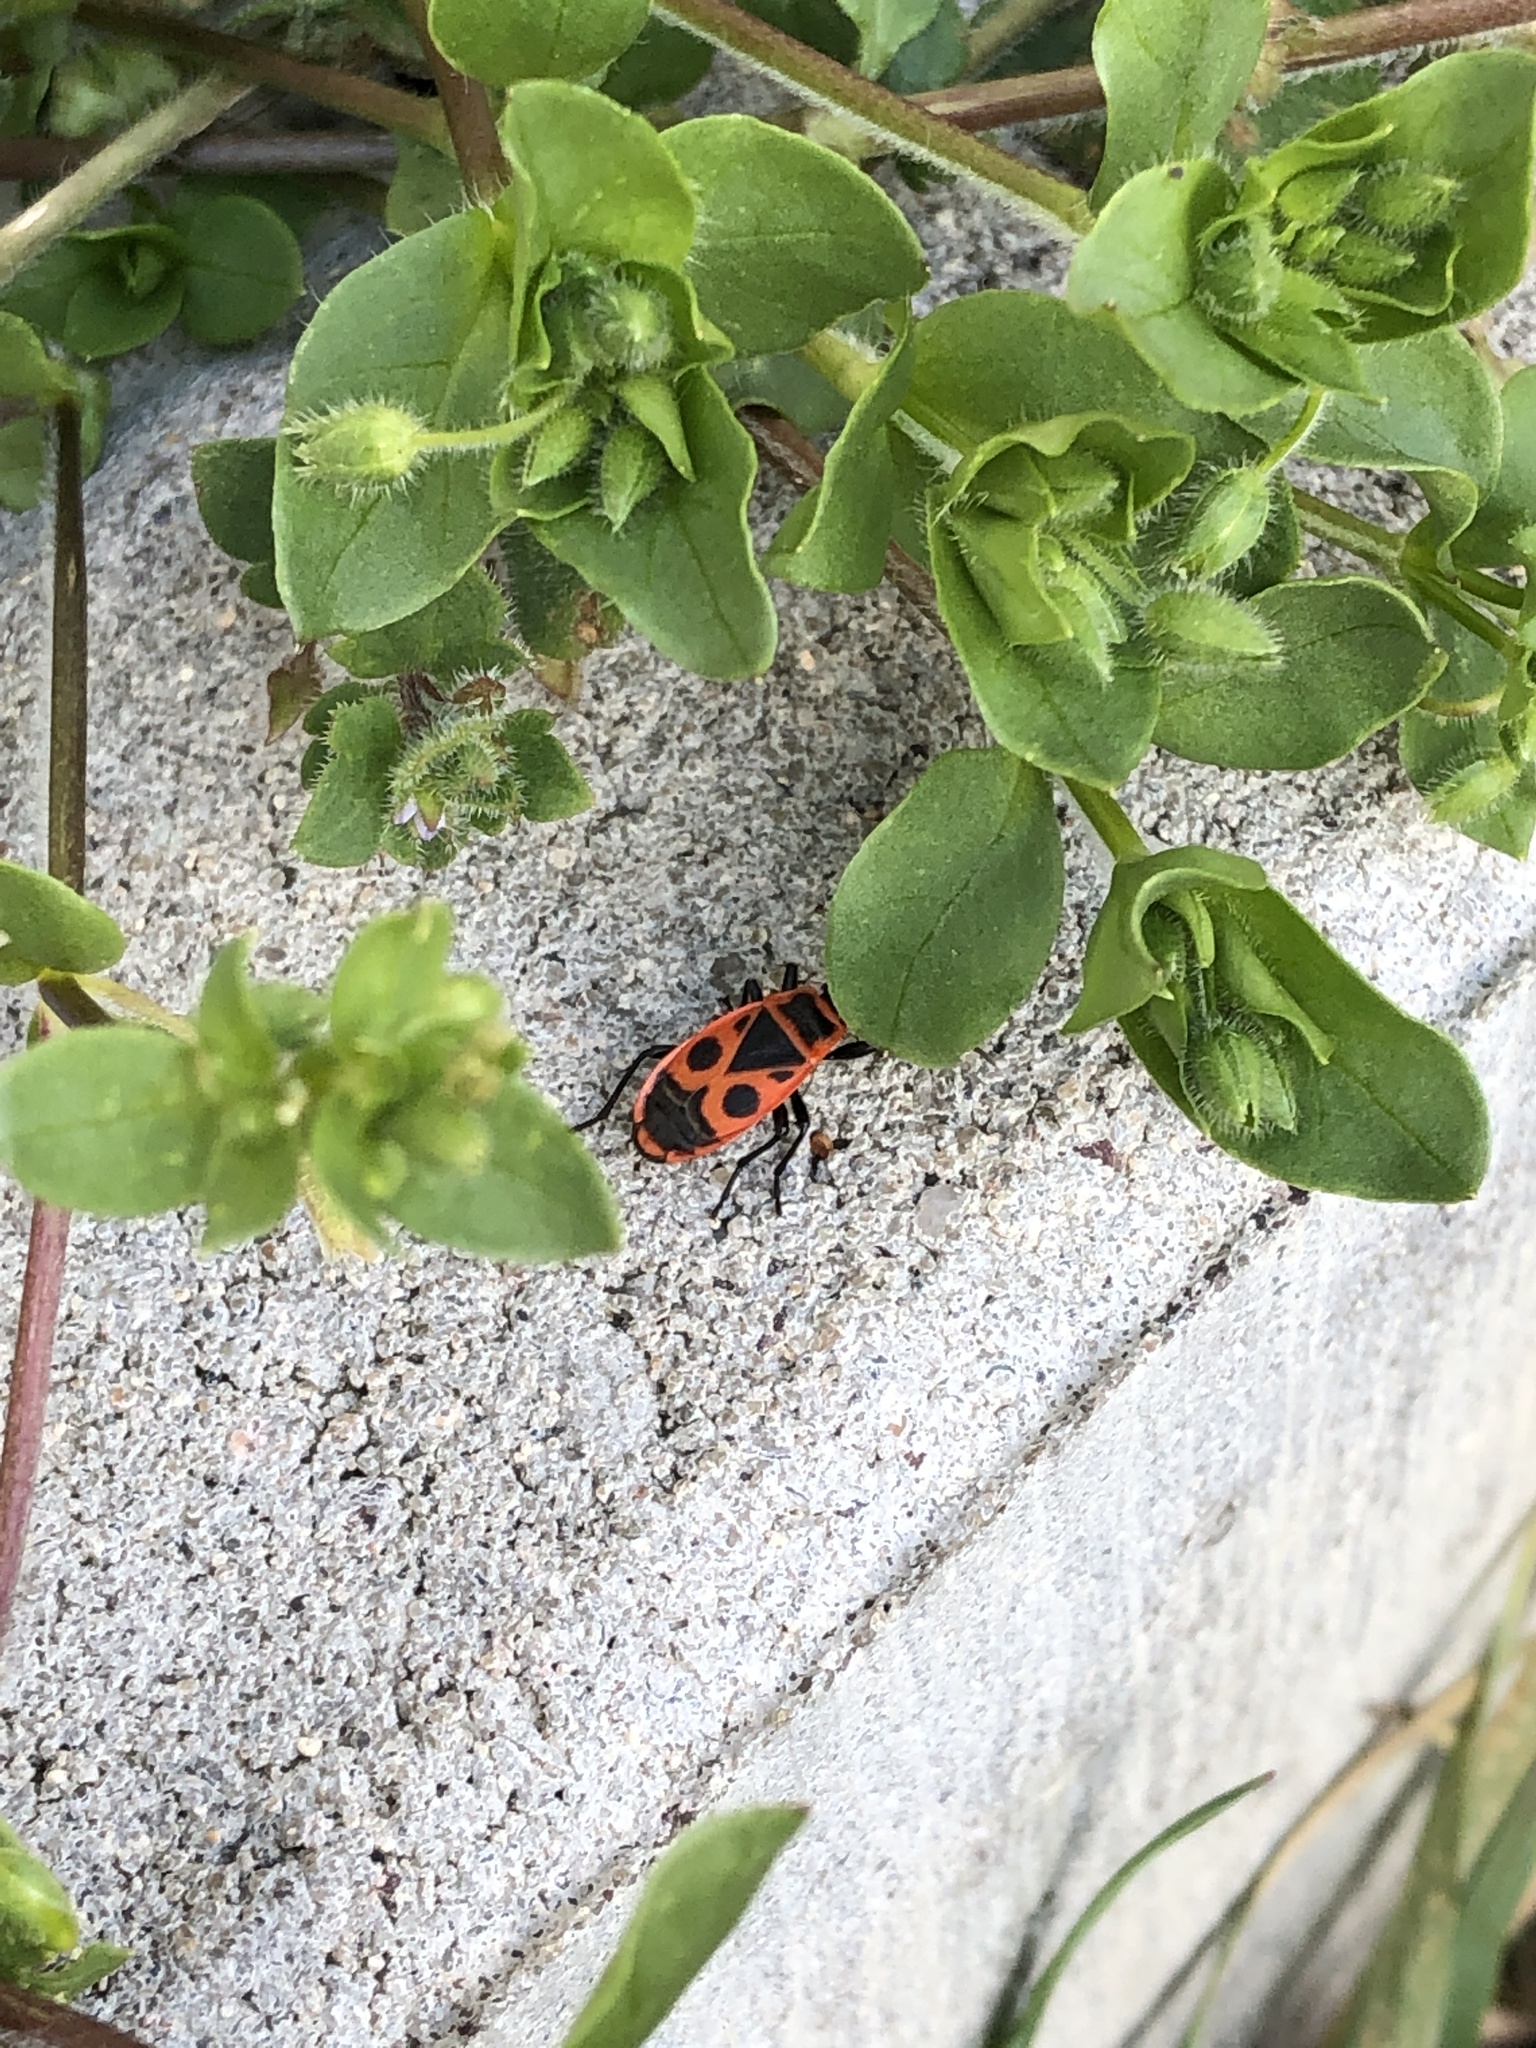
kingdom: Animalia
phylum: Arthropoda
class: Insecta
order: Hemiptera
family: Pyrrhocoridae
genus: Pyrrhocoris
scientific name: Pyrrhocoris apterus
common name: Firebug
